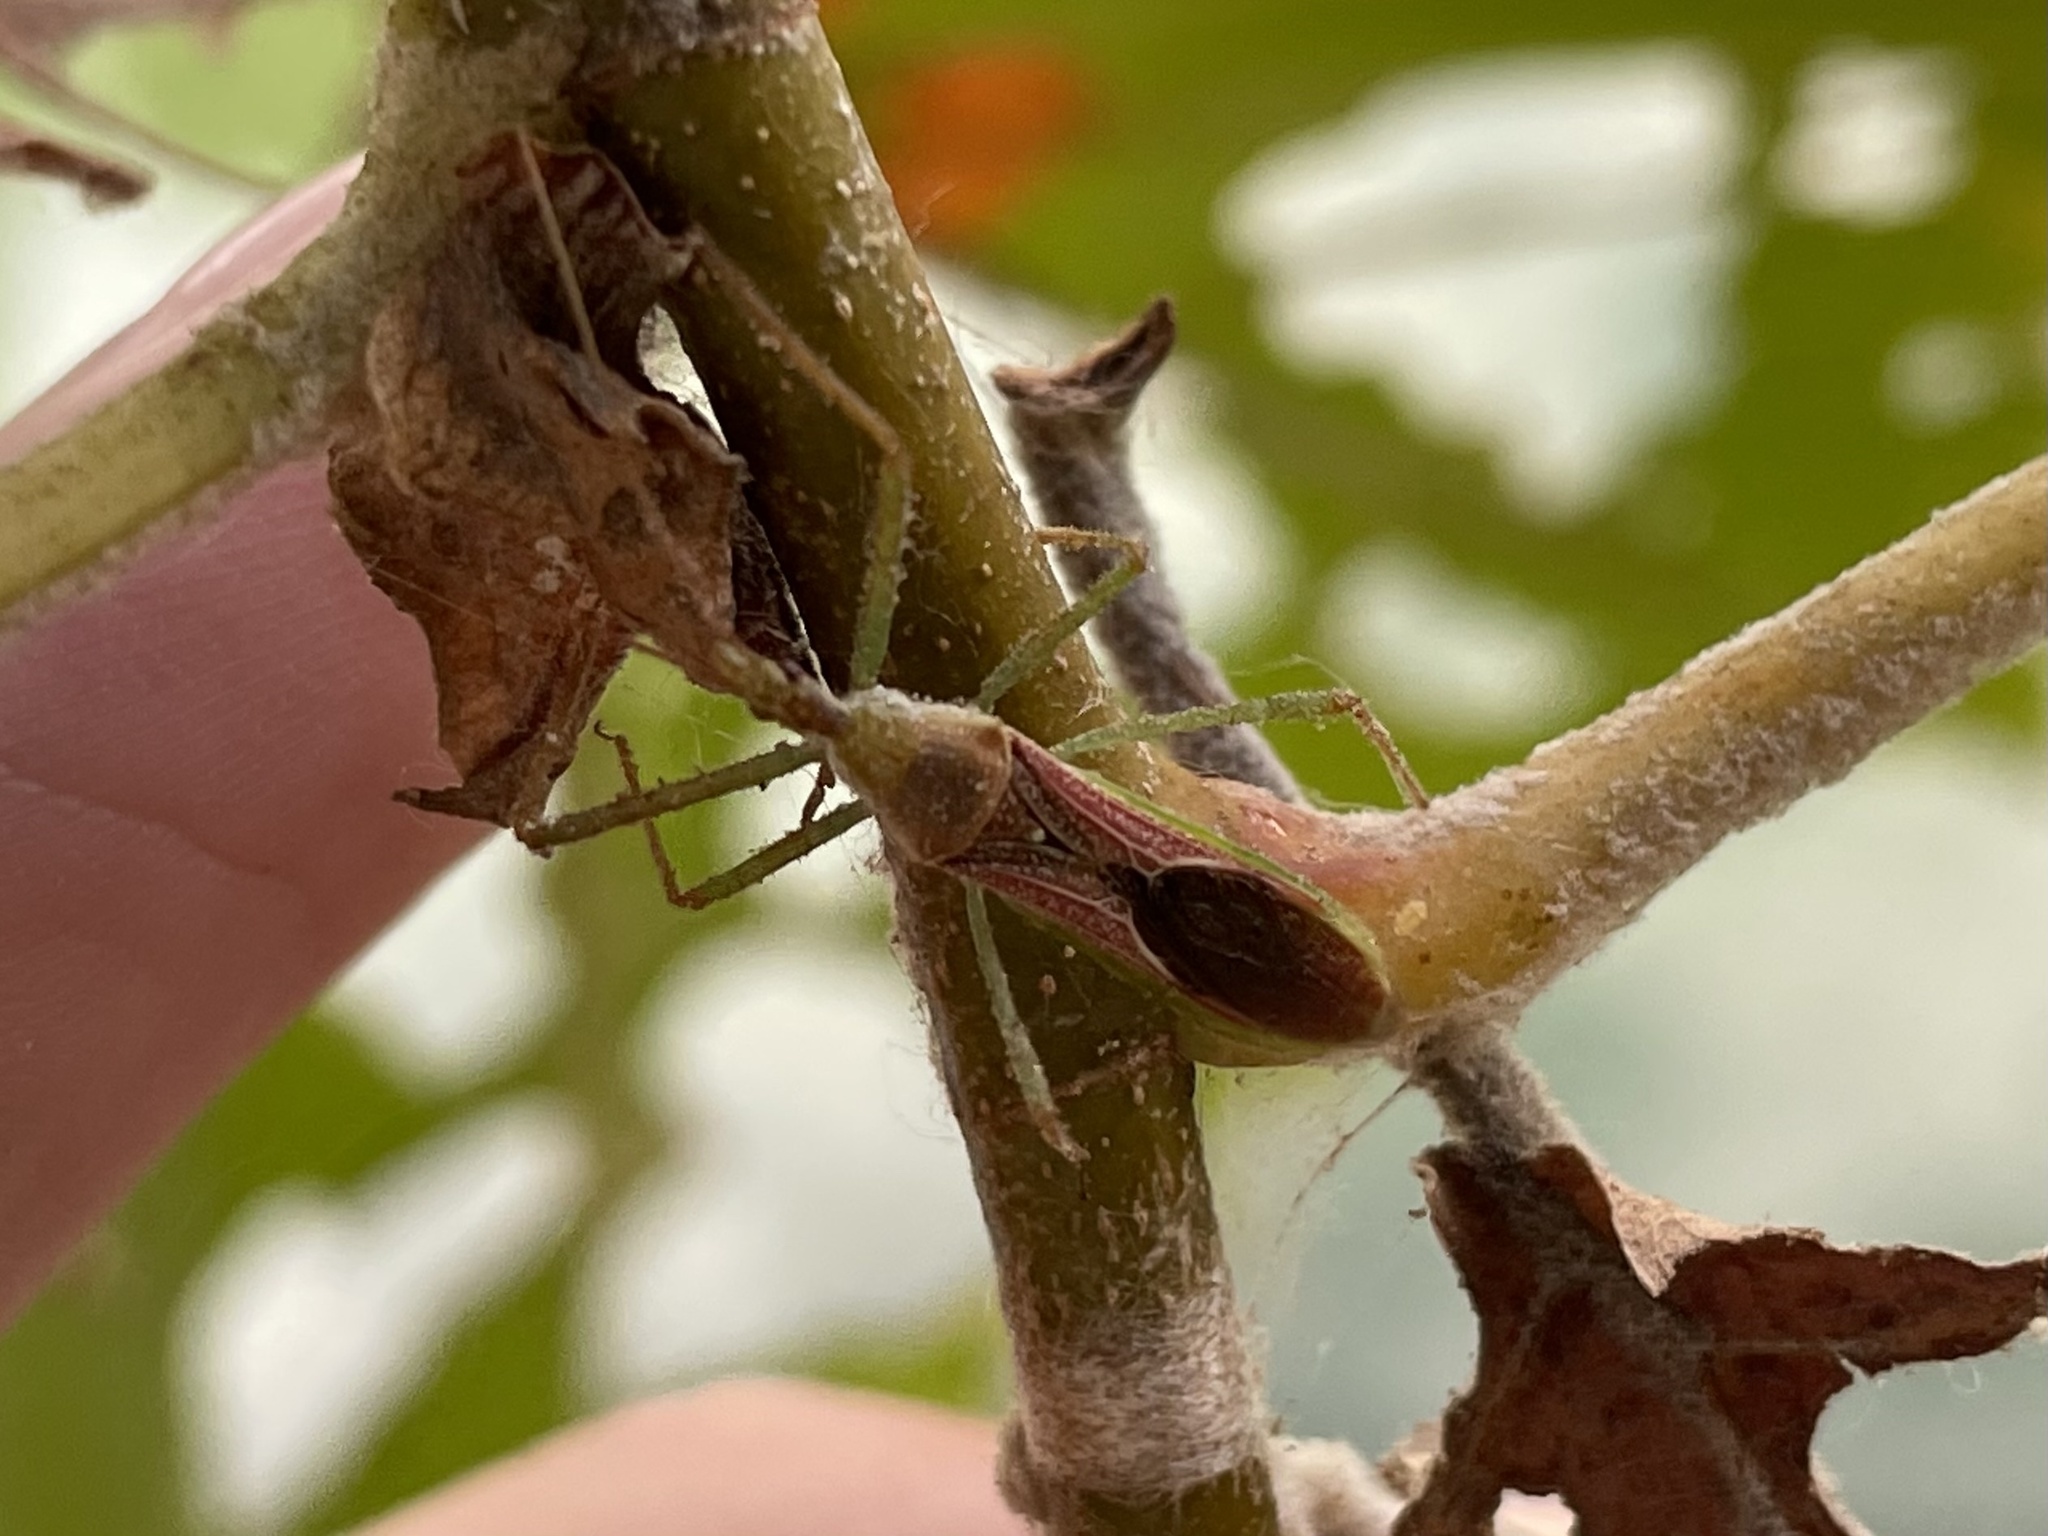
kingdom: Animalia
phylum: Arthropoda
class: Insecta
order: Hemiptera
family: Reduviidae
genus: Zelus
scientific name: Zelus renardii
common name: Assassin bug
